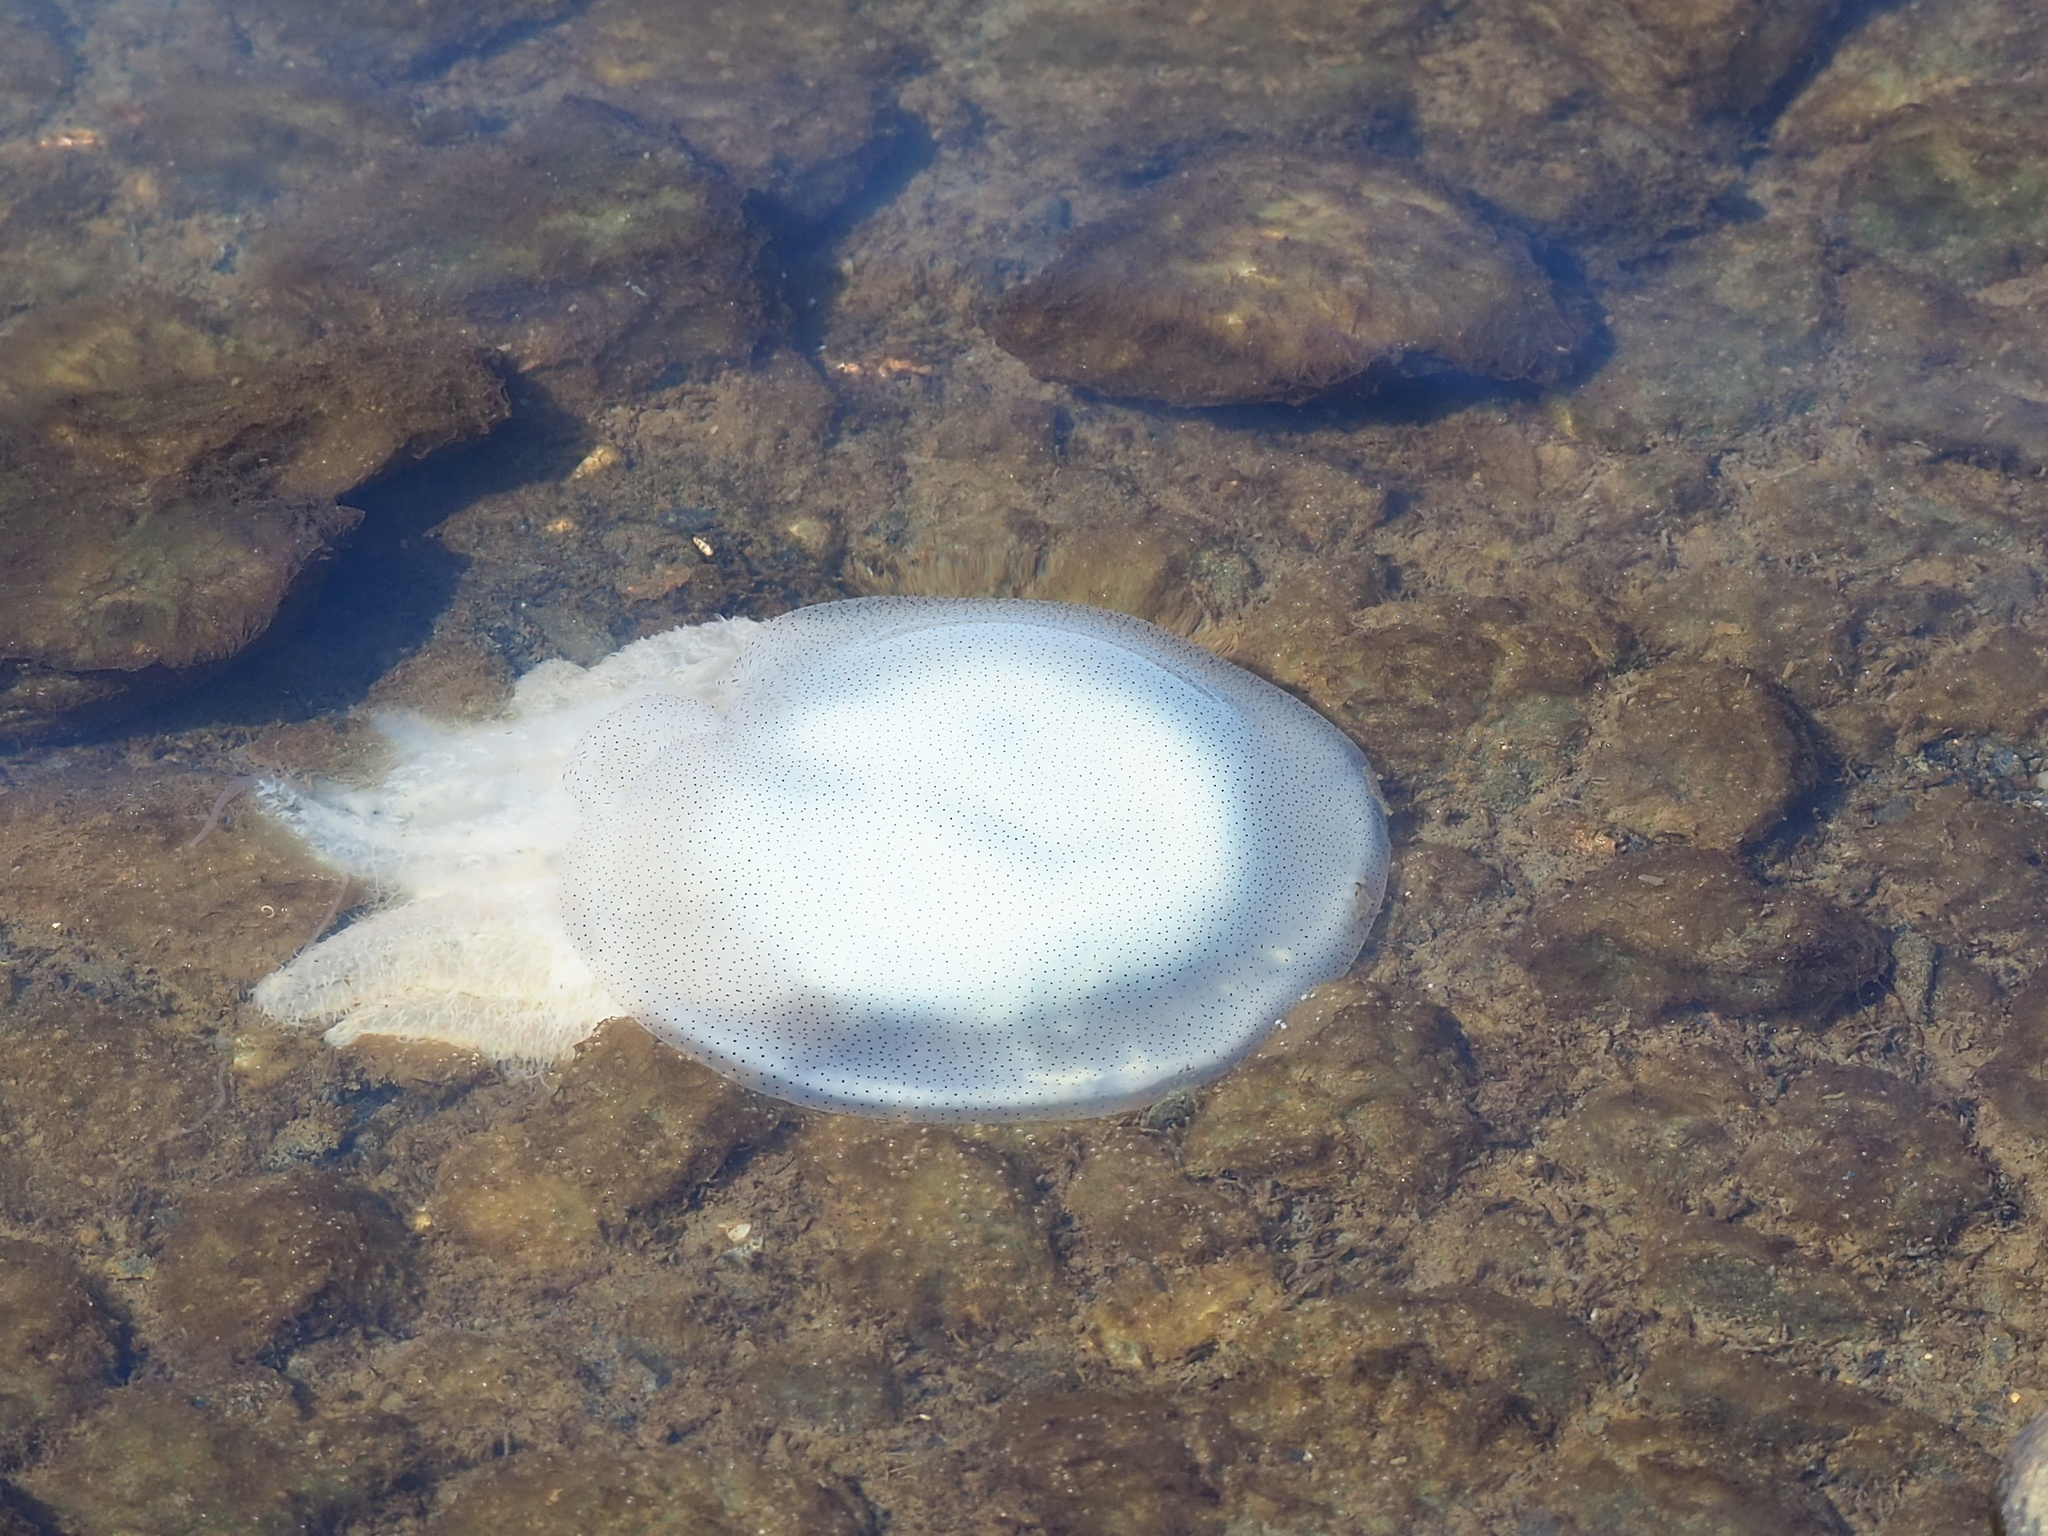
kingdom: Animalia
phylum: Cnidaria
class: Scyphozoa
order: Rhizostomeae
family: Catostylidae
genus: Acromitus
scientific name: Acromitus flagellatus
